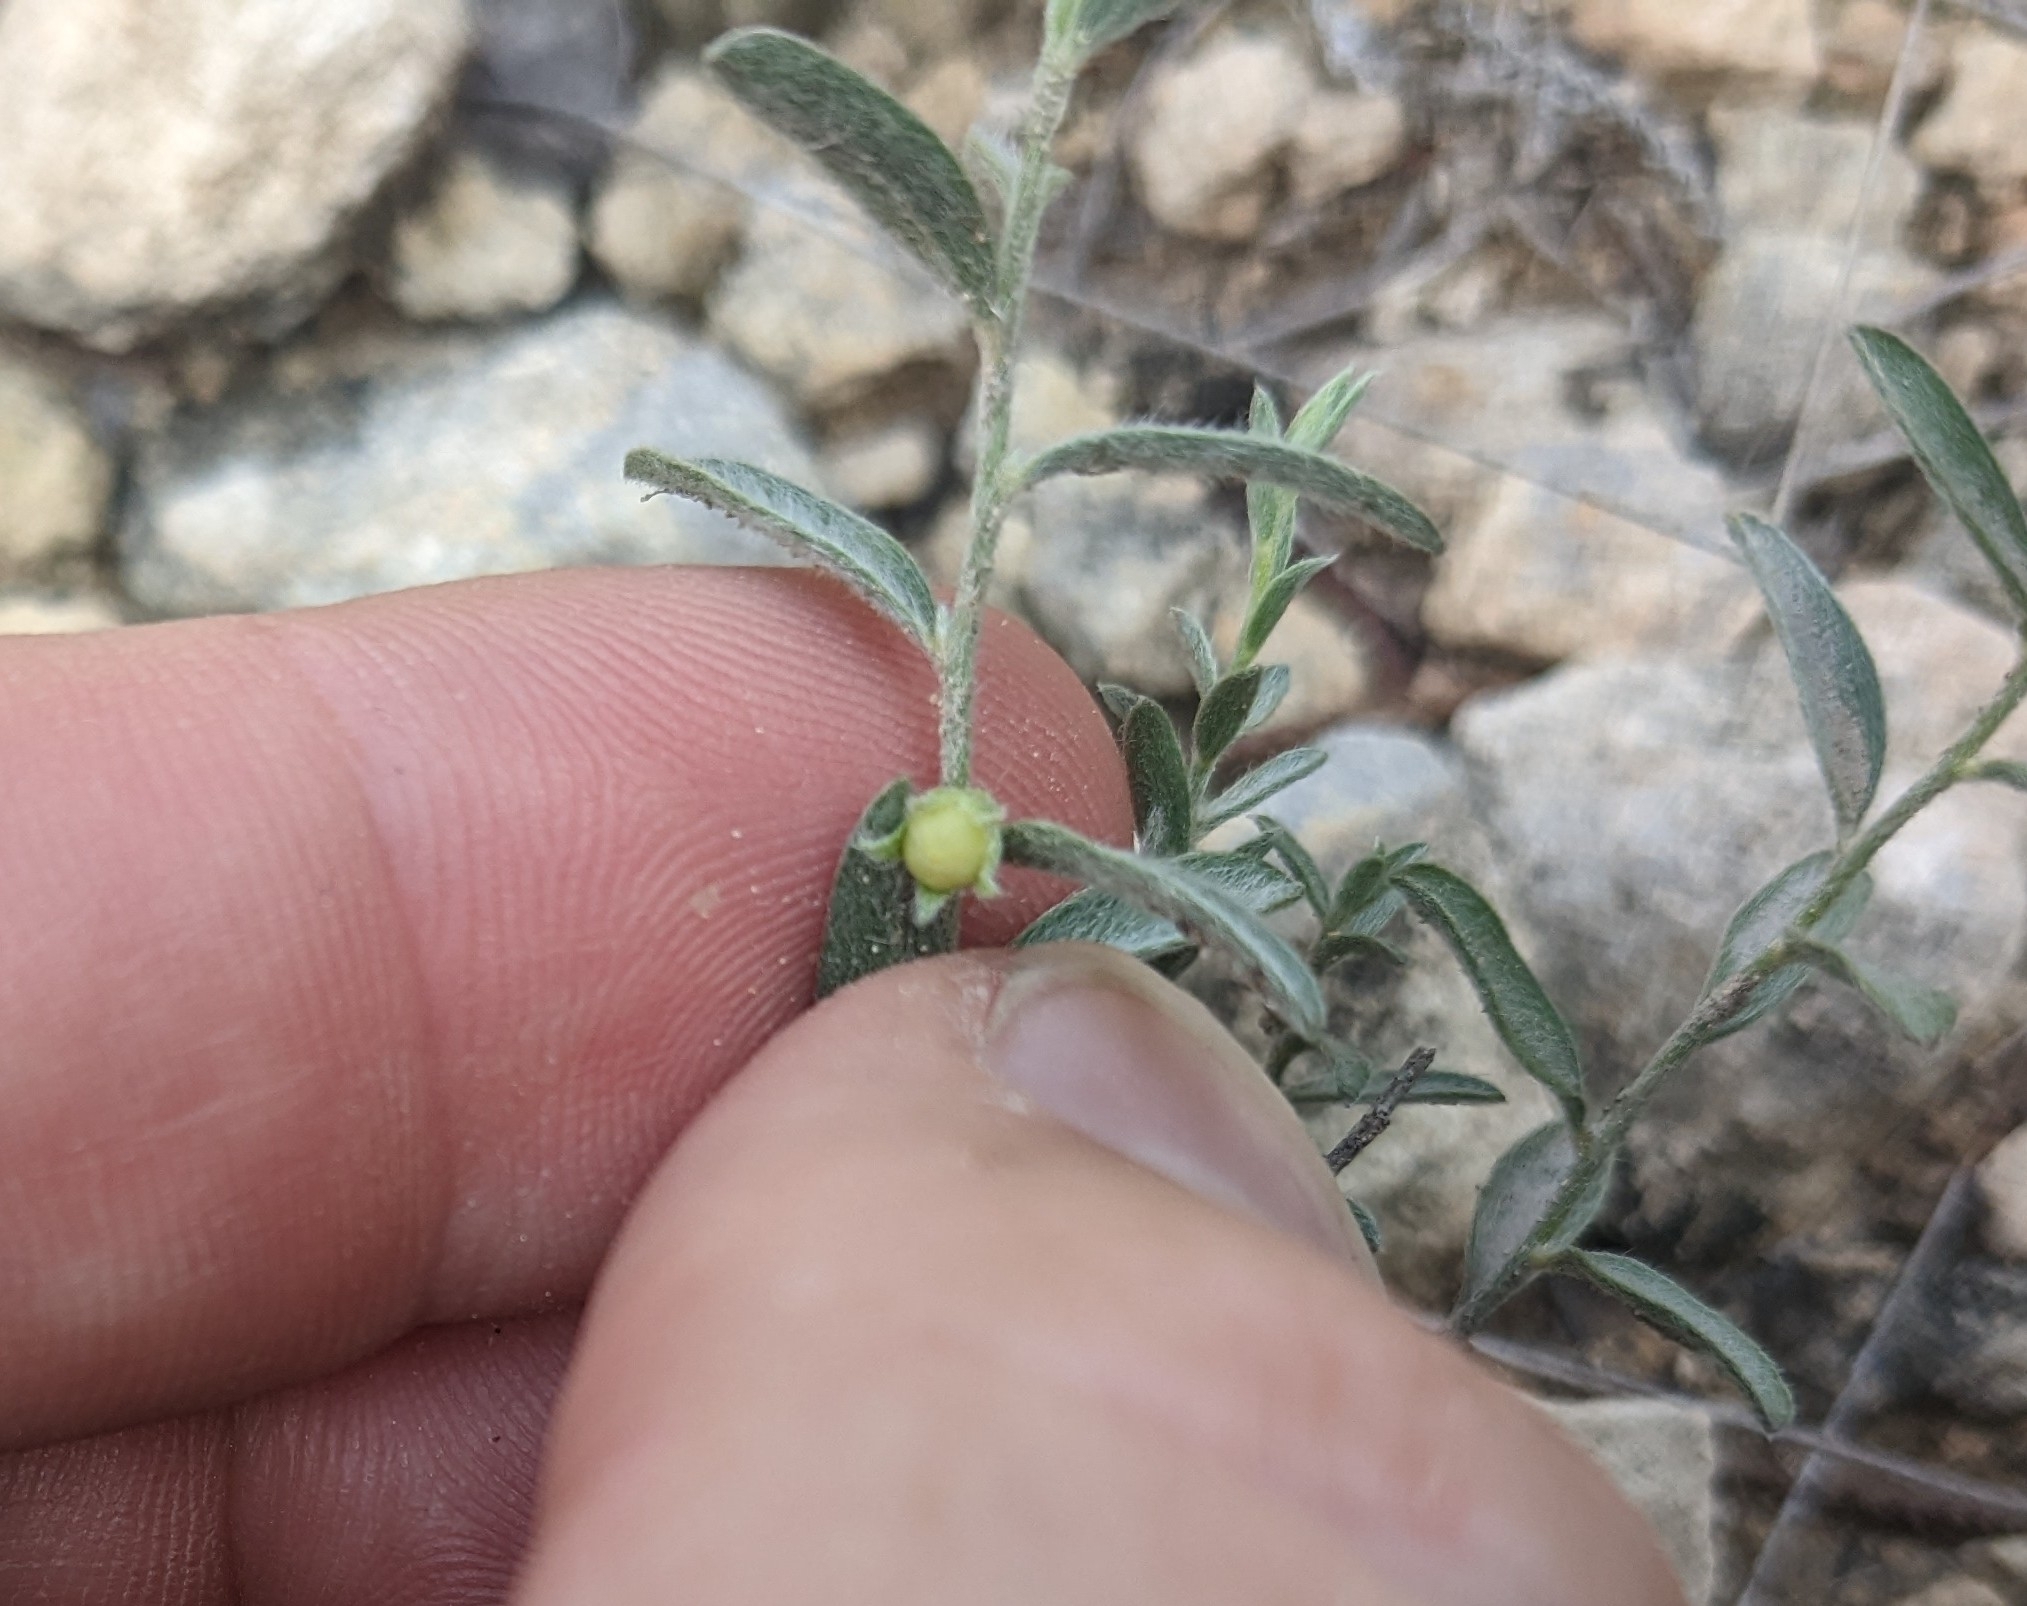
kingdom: Plantae
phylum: Tracheophyta
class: Magnoliopsida
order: Solanales
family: Convolvulaceae
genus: Evolvulus
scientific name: Evolvulus nuttallianus
